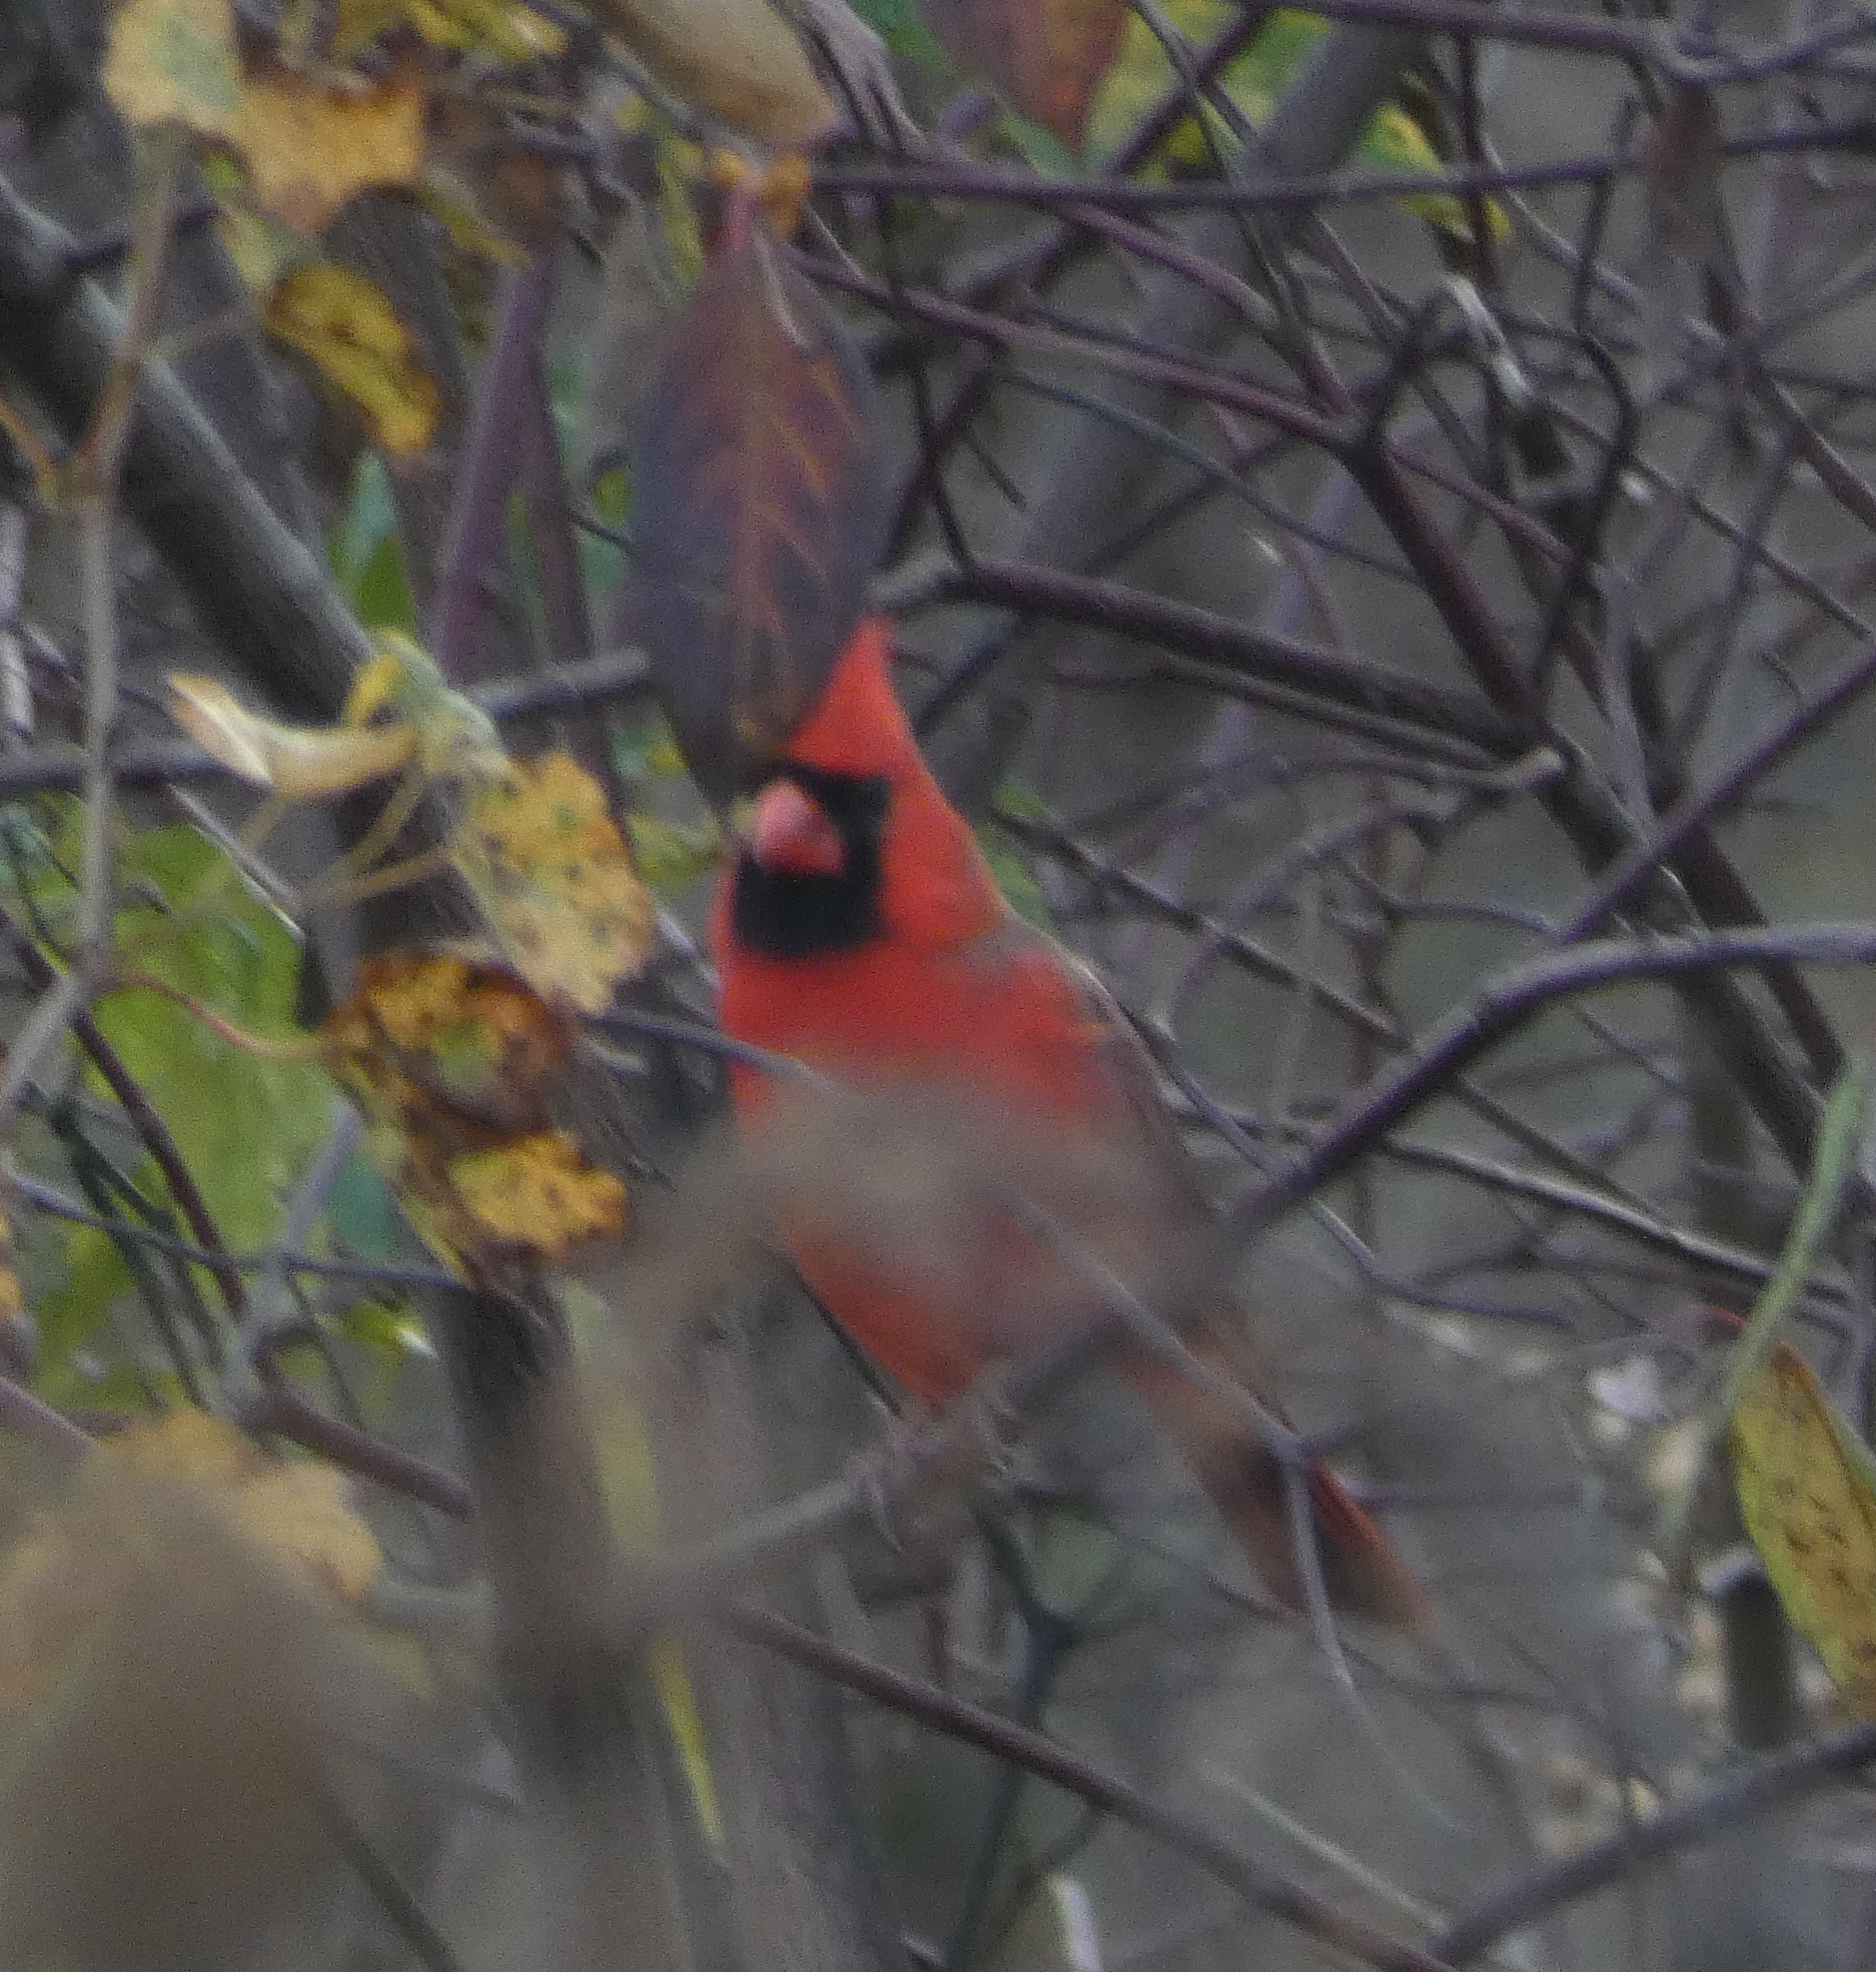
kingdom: Animalia
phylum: Chordata
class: Aves
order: Passeriformes
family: Cardinalidae
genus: Cardinalis
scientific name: Cardinalis cardinalis
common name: Northern cardinal
